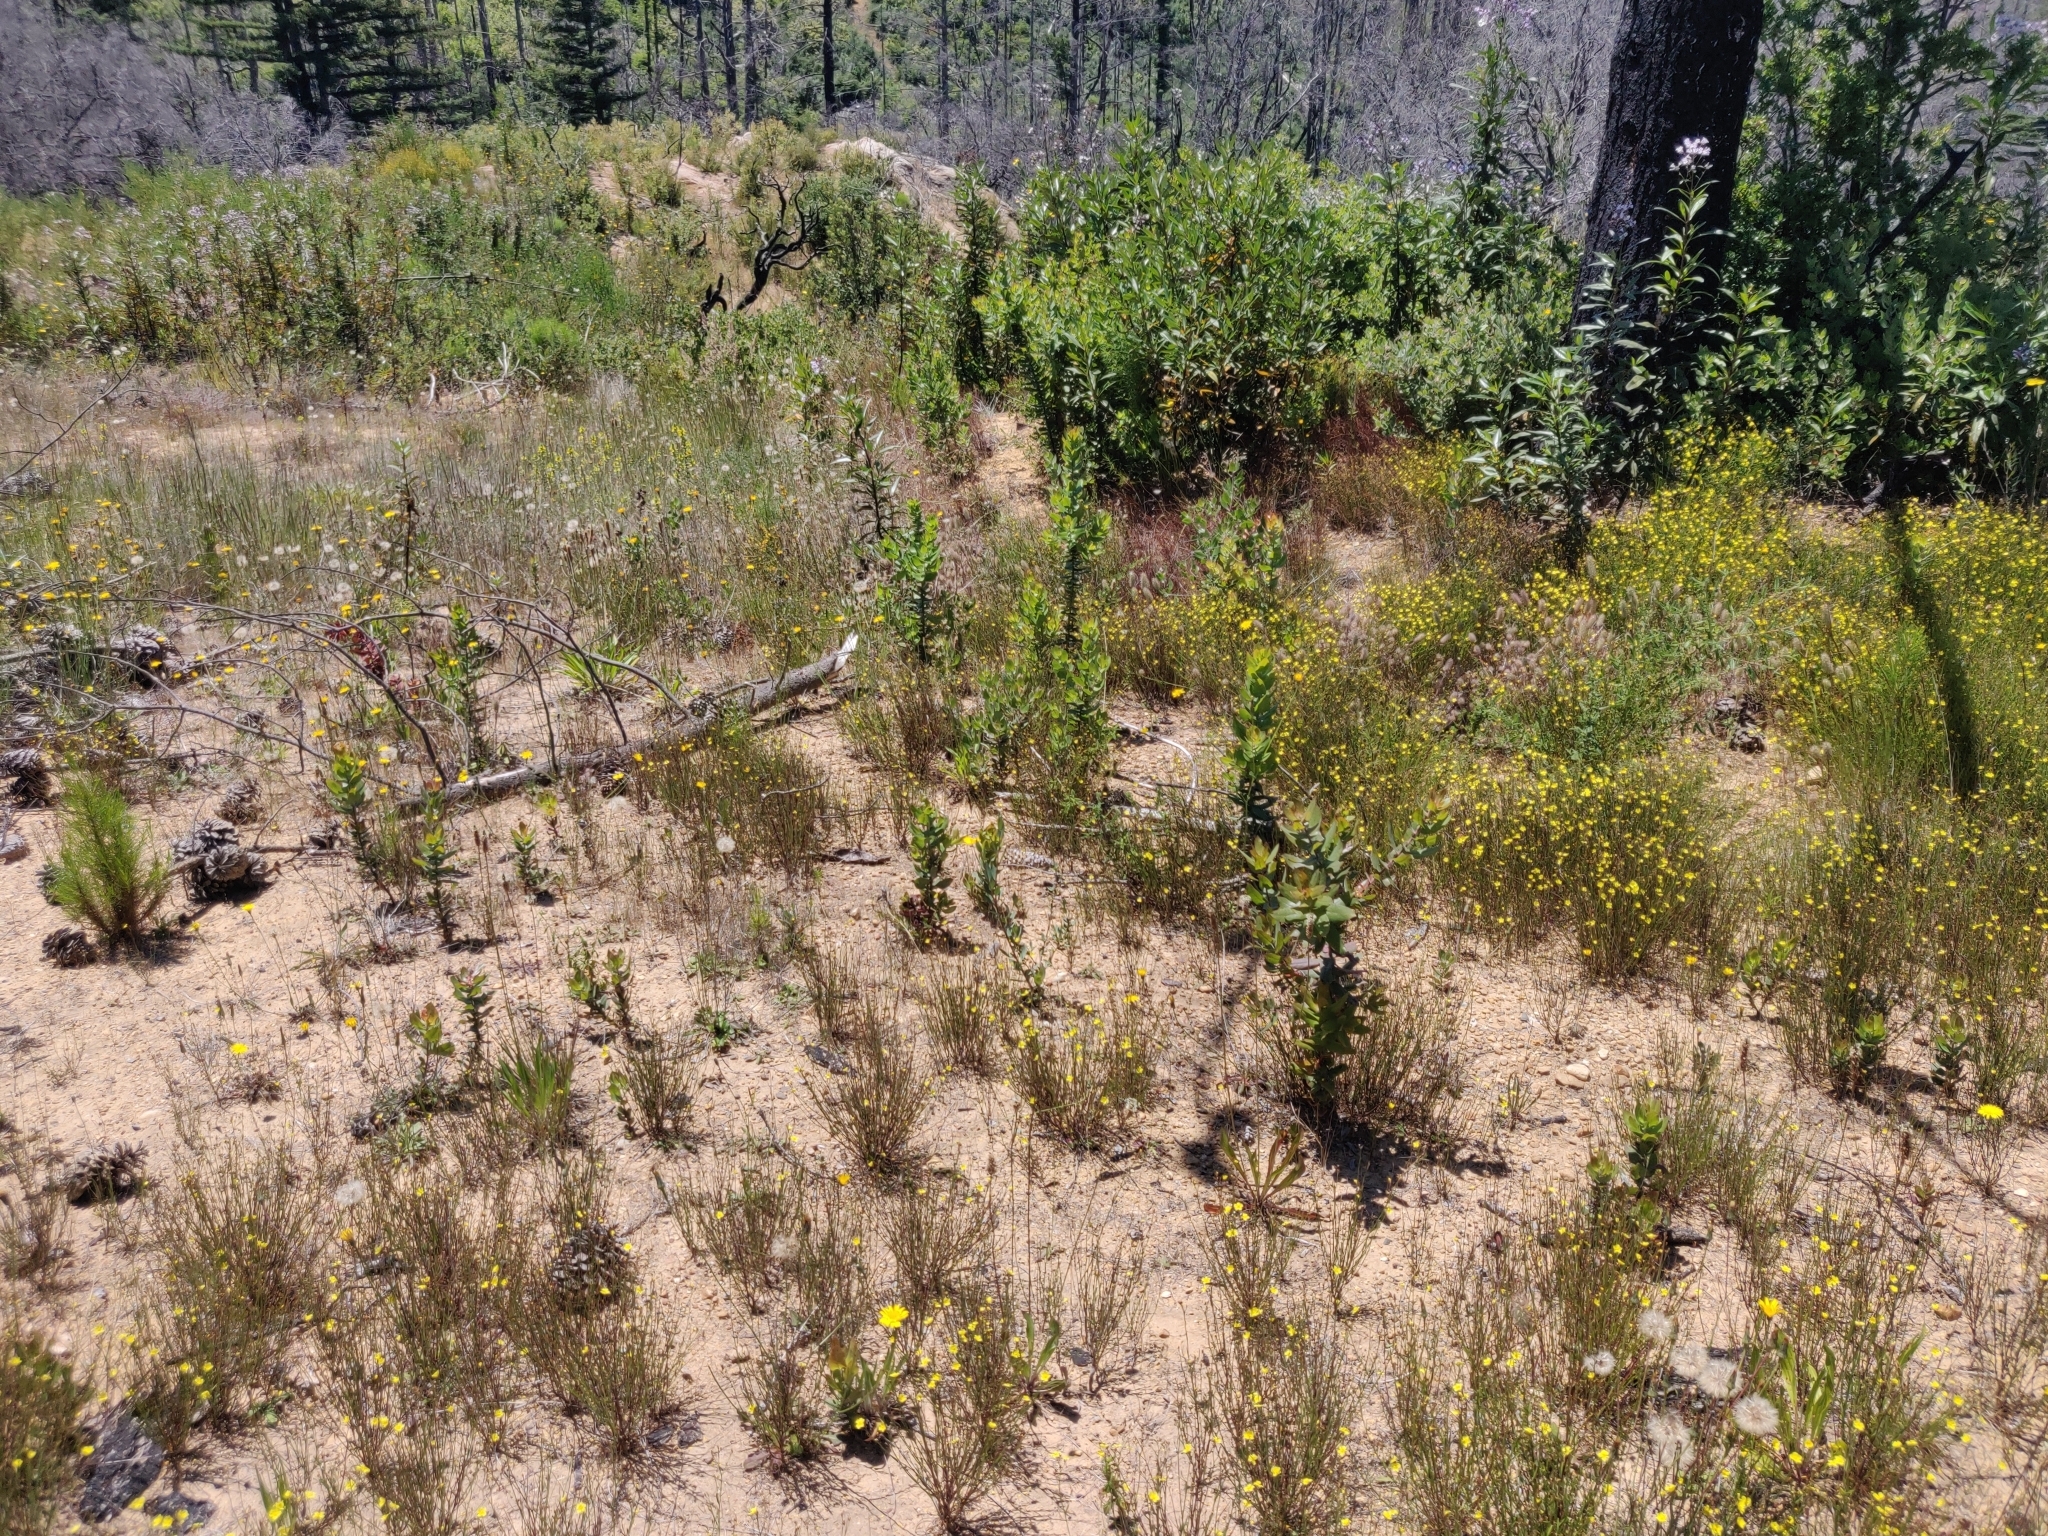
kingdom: Plantae
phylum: Tracheophyta
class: Magnoliopsida
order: Ericales
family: Ericaceae
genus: Arctostaphylos
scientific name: Arctostaphylos andersonii
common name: Santa cruz manzanita
